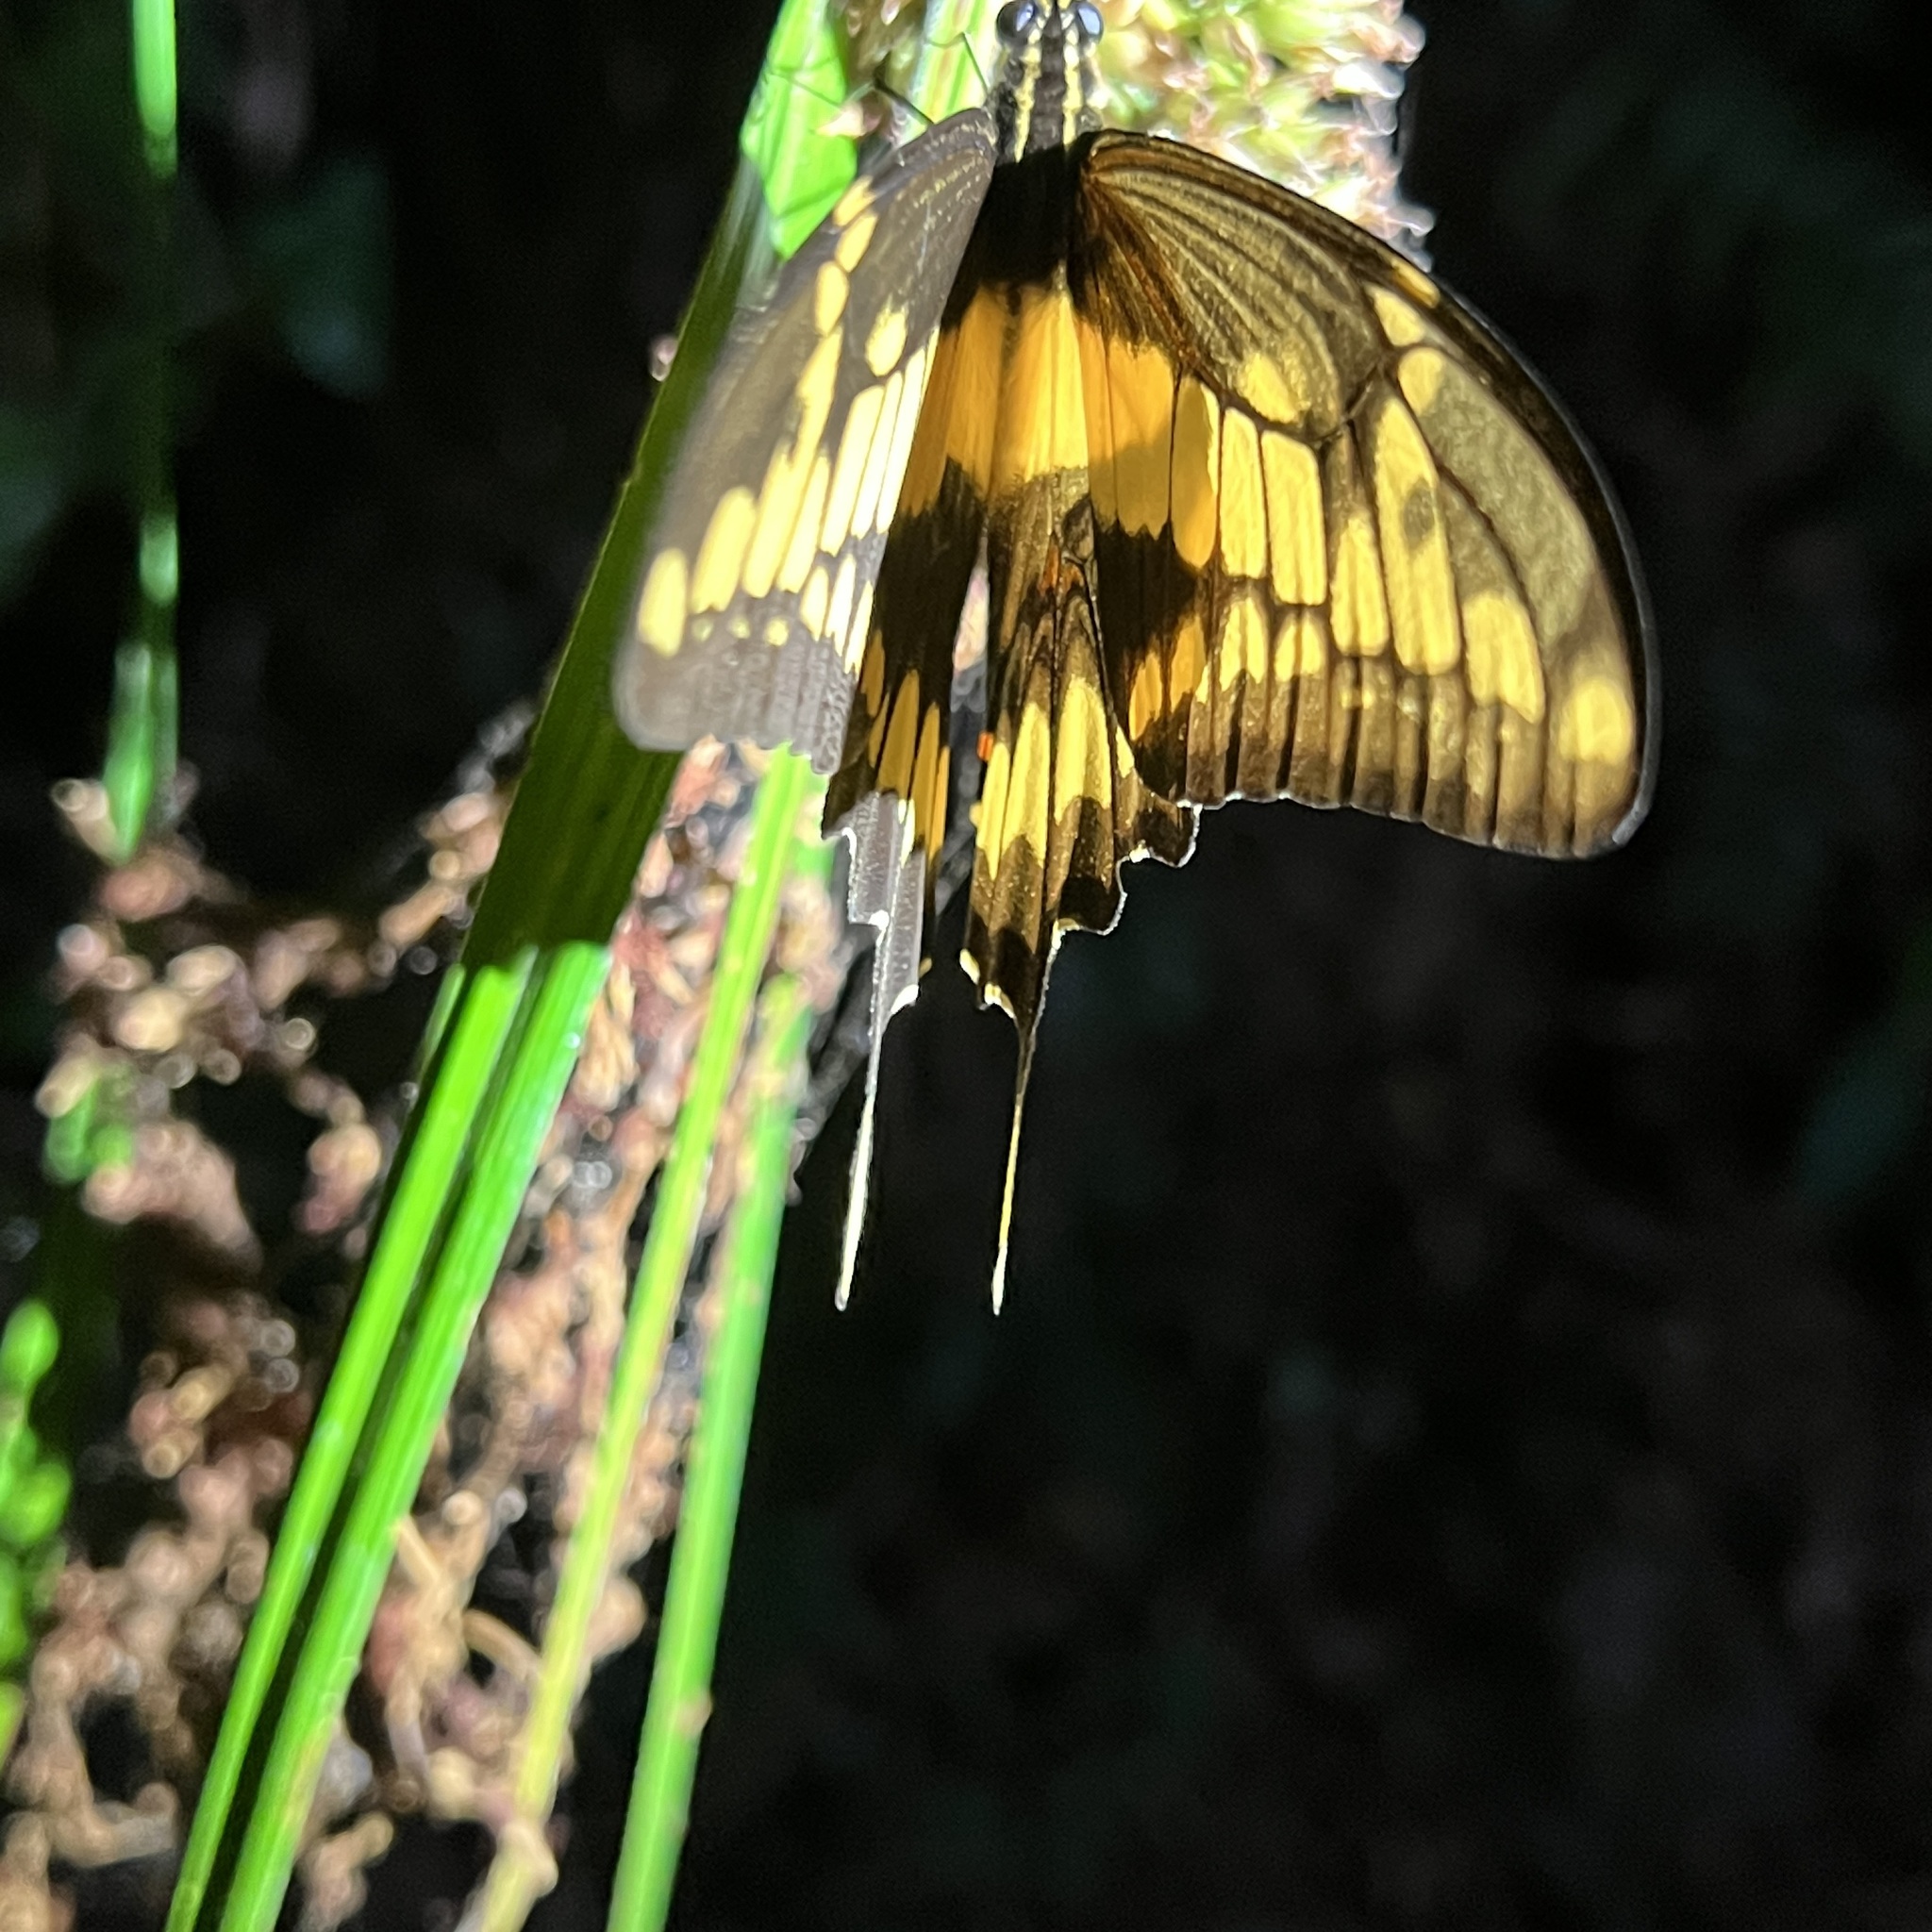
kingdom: Animalia
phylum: Arthropoda
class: Insecta
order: Lepidoptera
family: Papilionidae
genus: Papilio
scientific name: Papilio thoas
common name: King swallowtail
